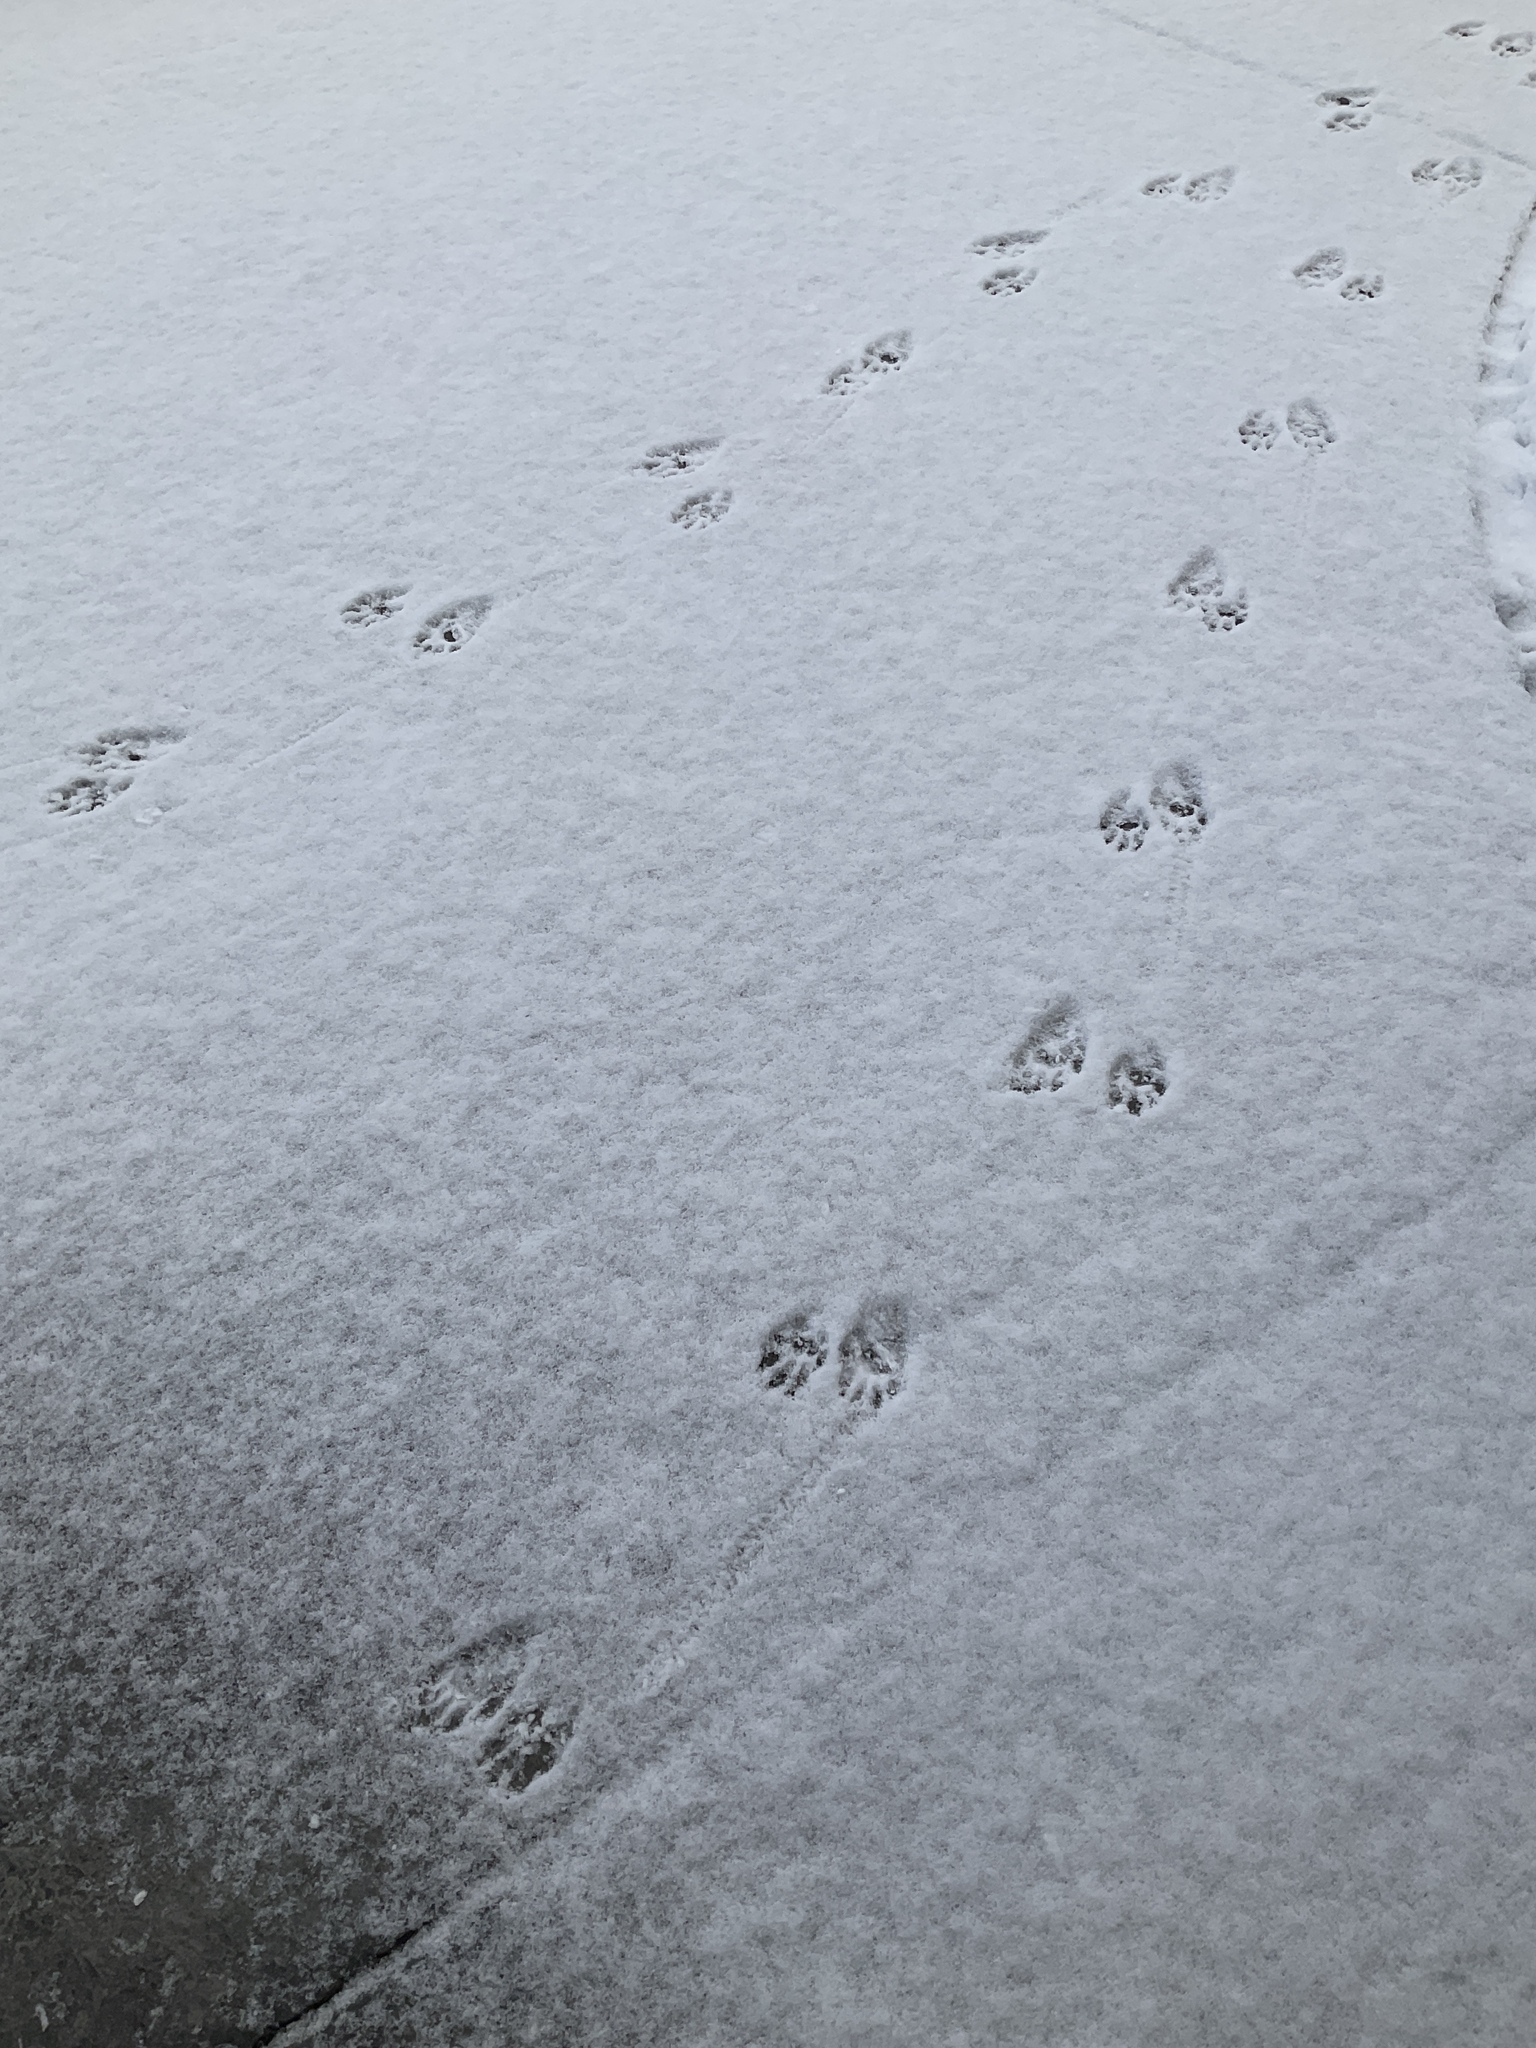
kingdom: Animalia
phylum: Chordata
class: Mammalia
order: Carnivora
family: Procyonidae
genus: Procyon
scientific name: Procyon lotor
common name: Raccoon
